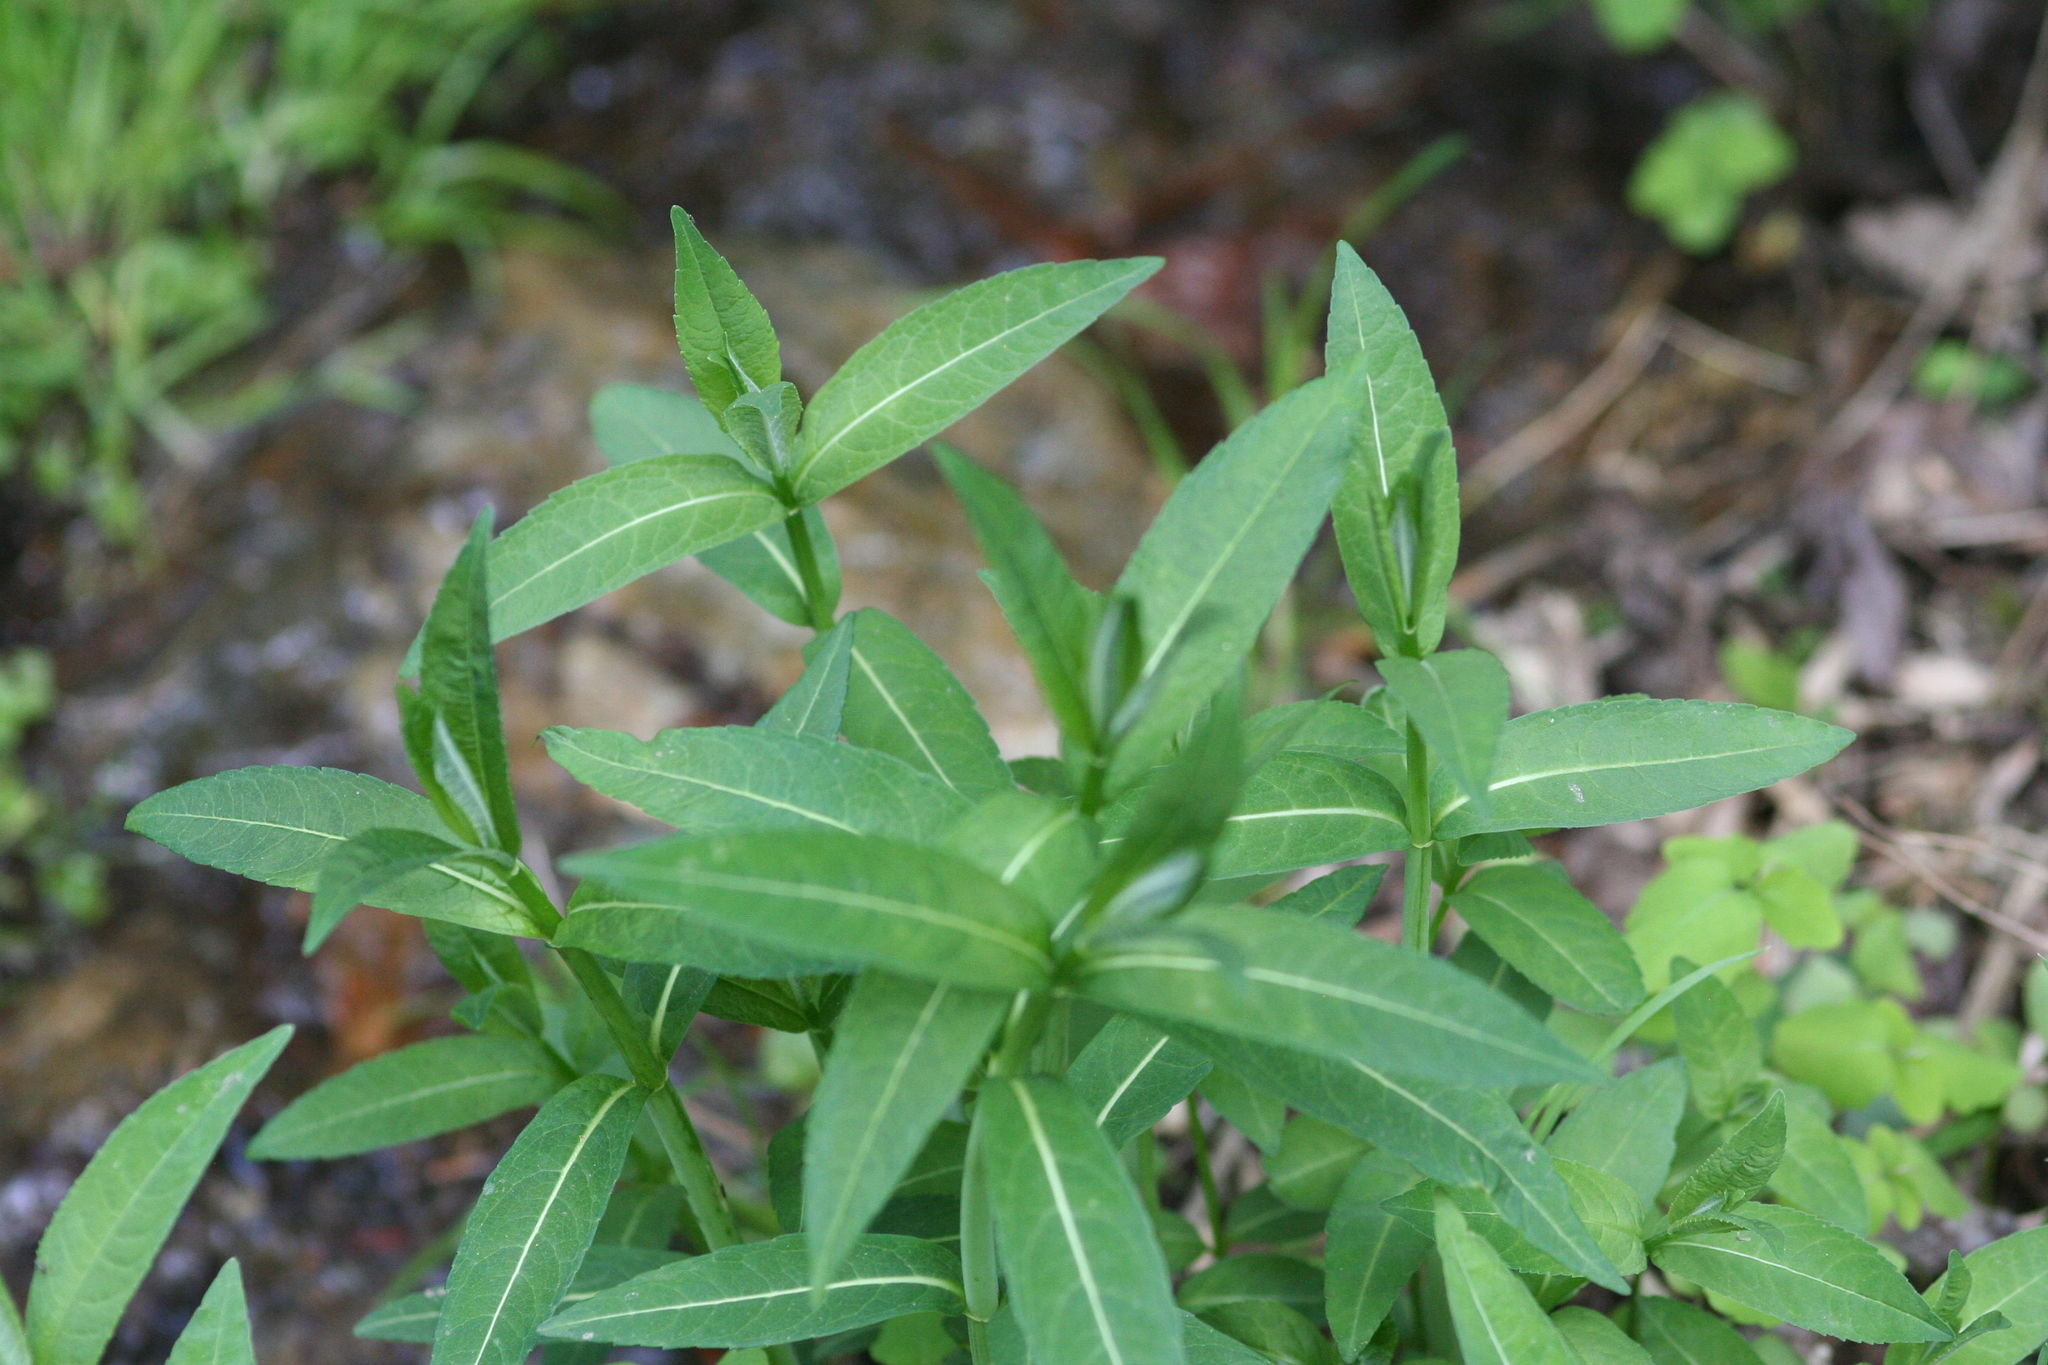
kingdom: Plantae
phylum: Tracheophyta
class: Magnoliopsida
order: Lamiales
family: Plantaginaceae
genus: Chelone
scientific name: Chelone glabra
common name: Snakehead
